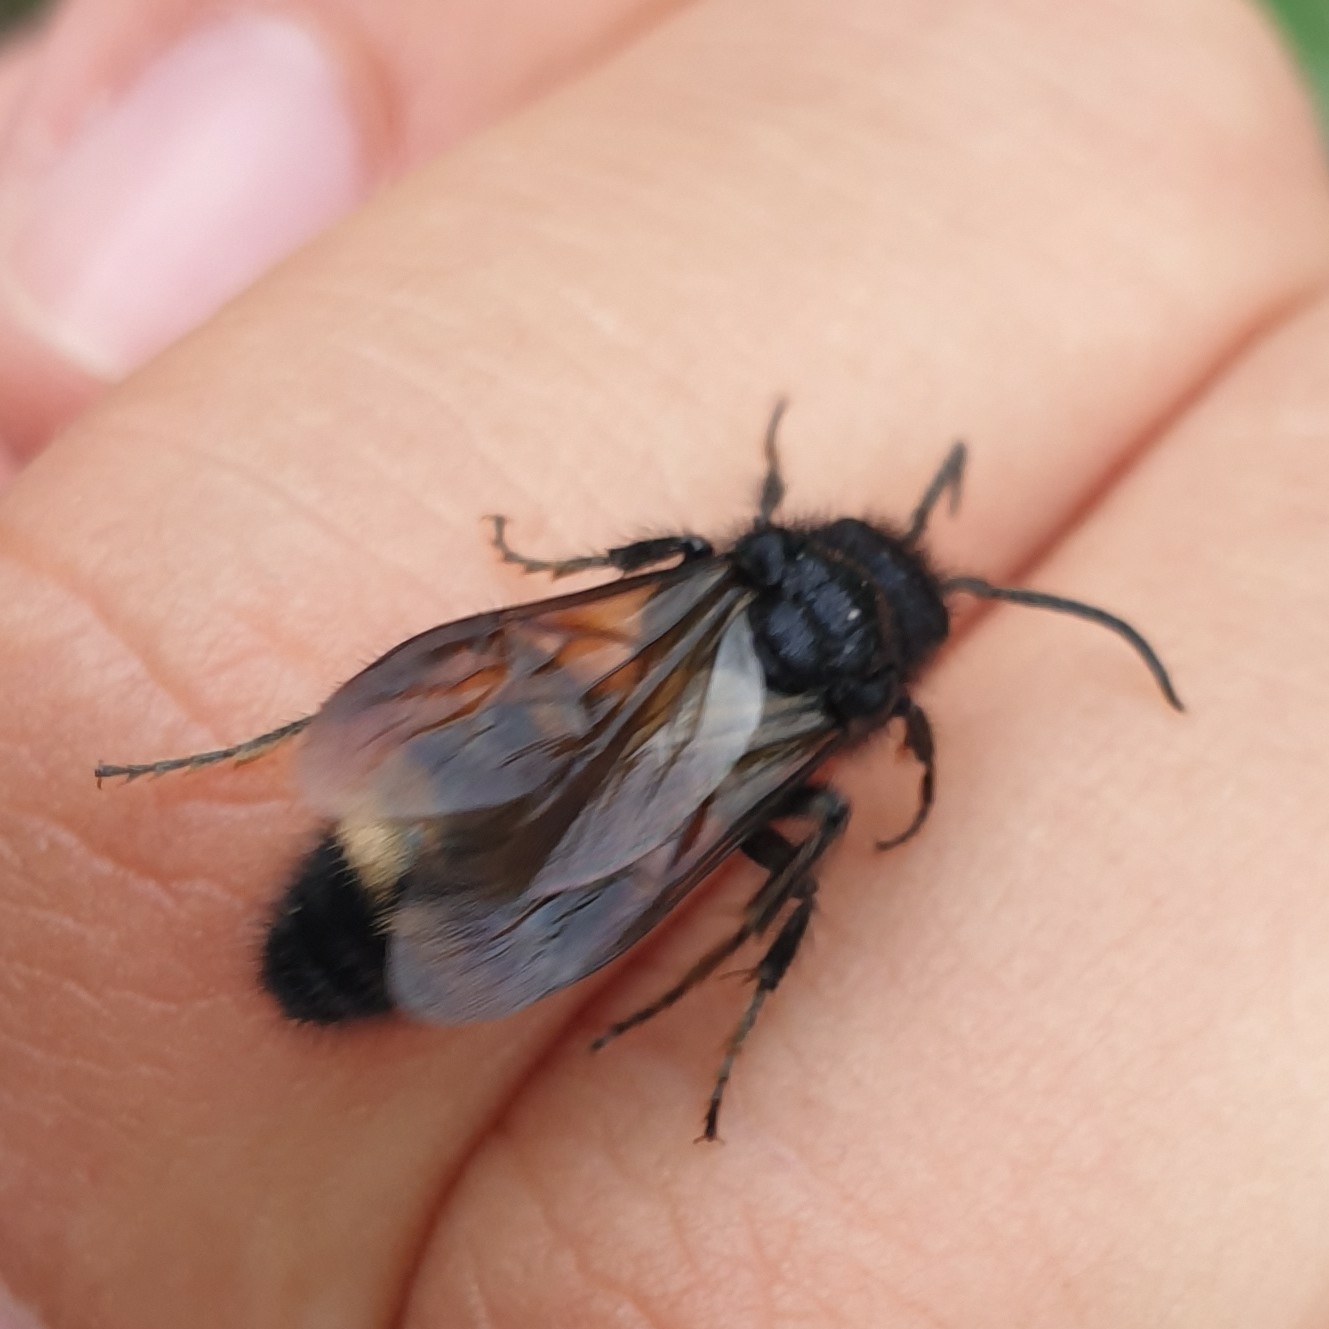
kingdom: Animalia
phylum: Arthropoda
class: Insecta
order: Hymenoptera
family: Mutillidae
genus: Mutilla
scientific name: Mutilla europaea
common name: Large velvet ant
